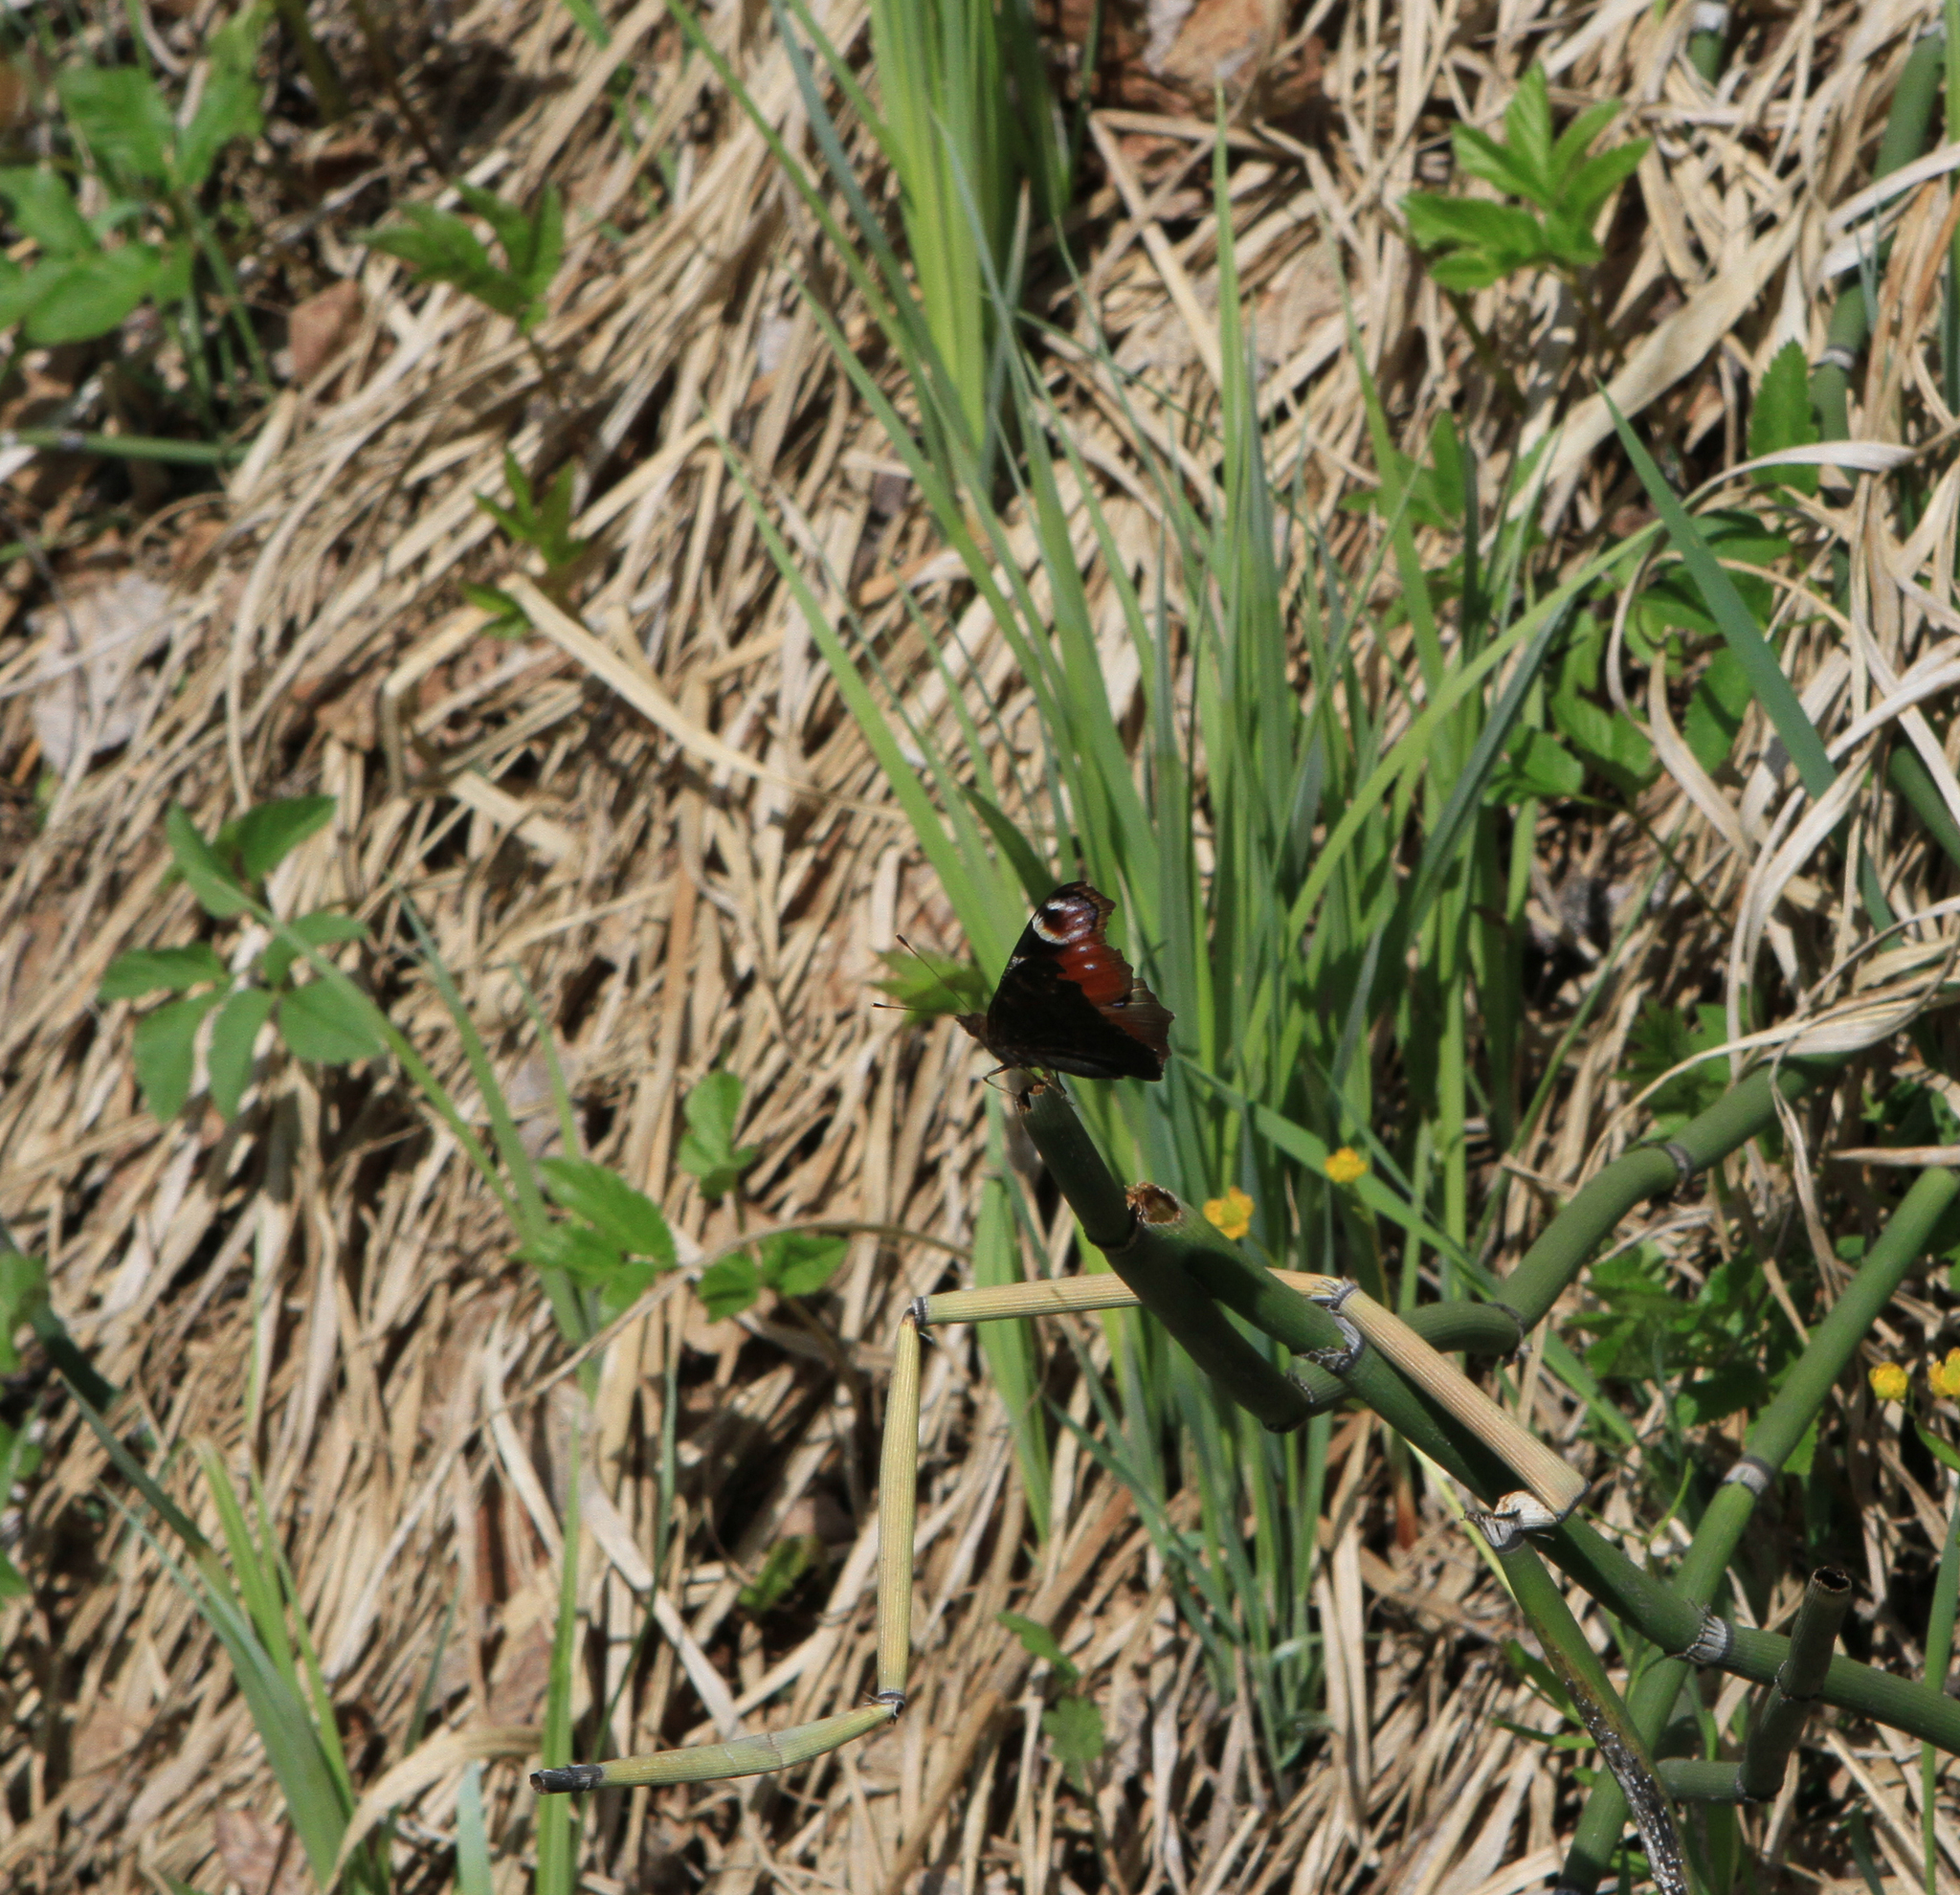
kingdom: Animalia
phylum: Arthropoda
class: Insecta
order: Lepidoptera
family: Nymphalidae
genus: Aglais
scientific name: Aglais io
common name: Peacock
